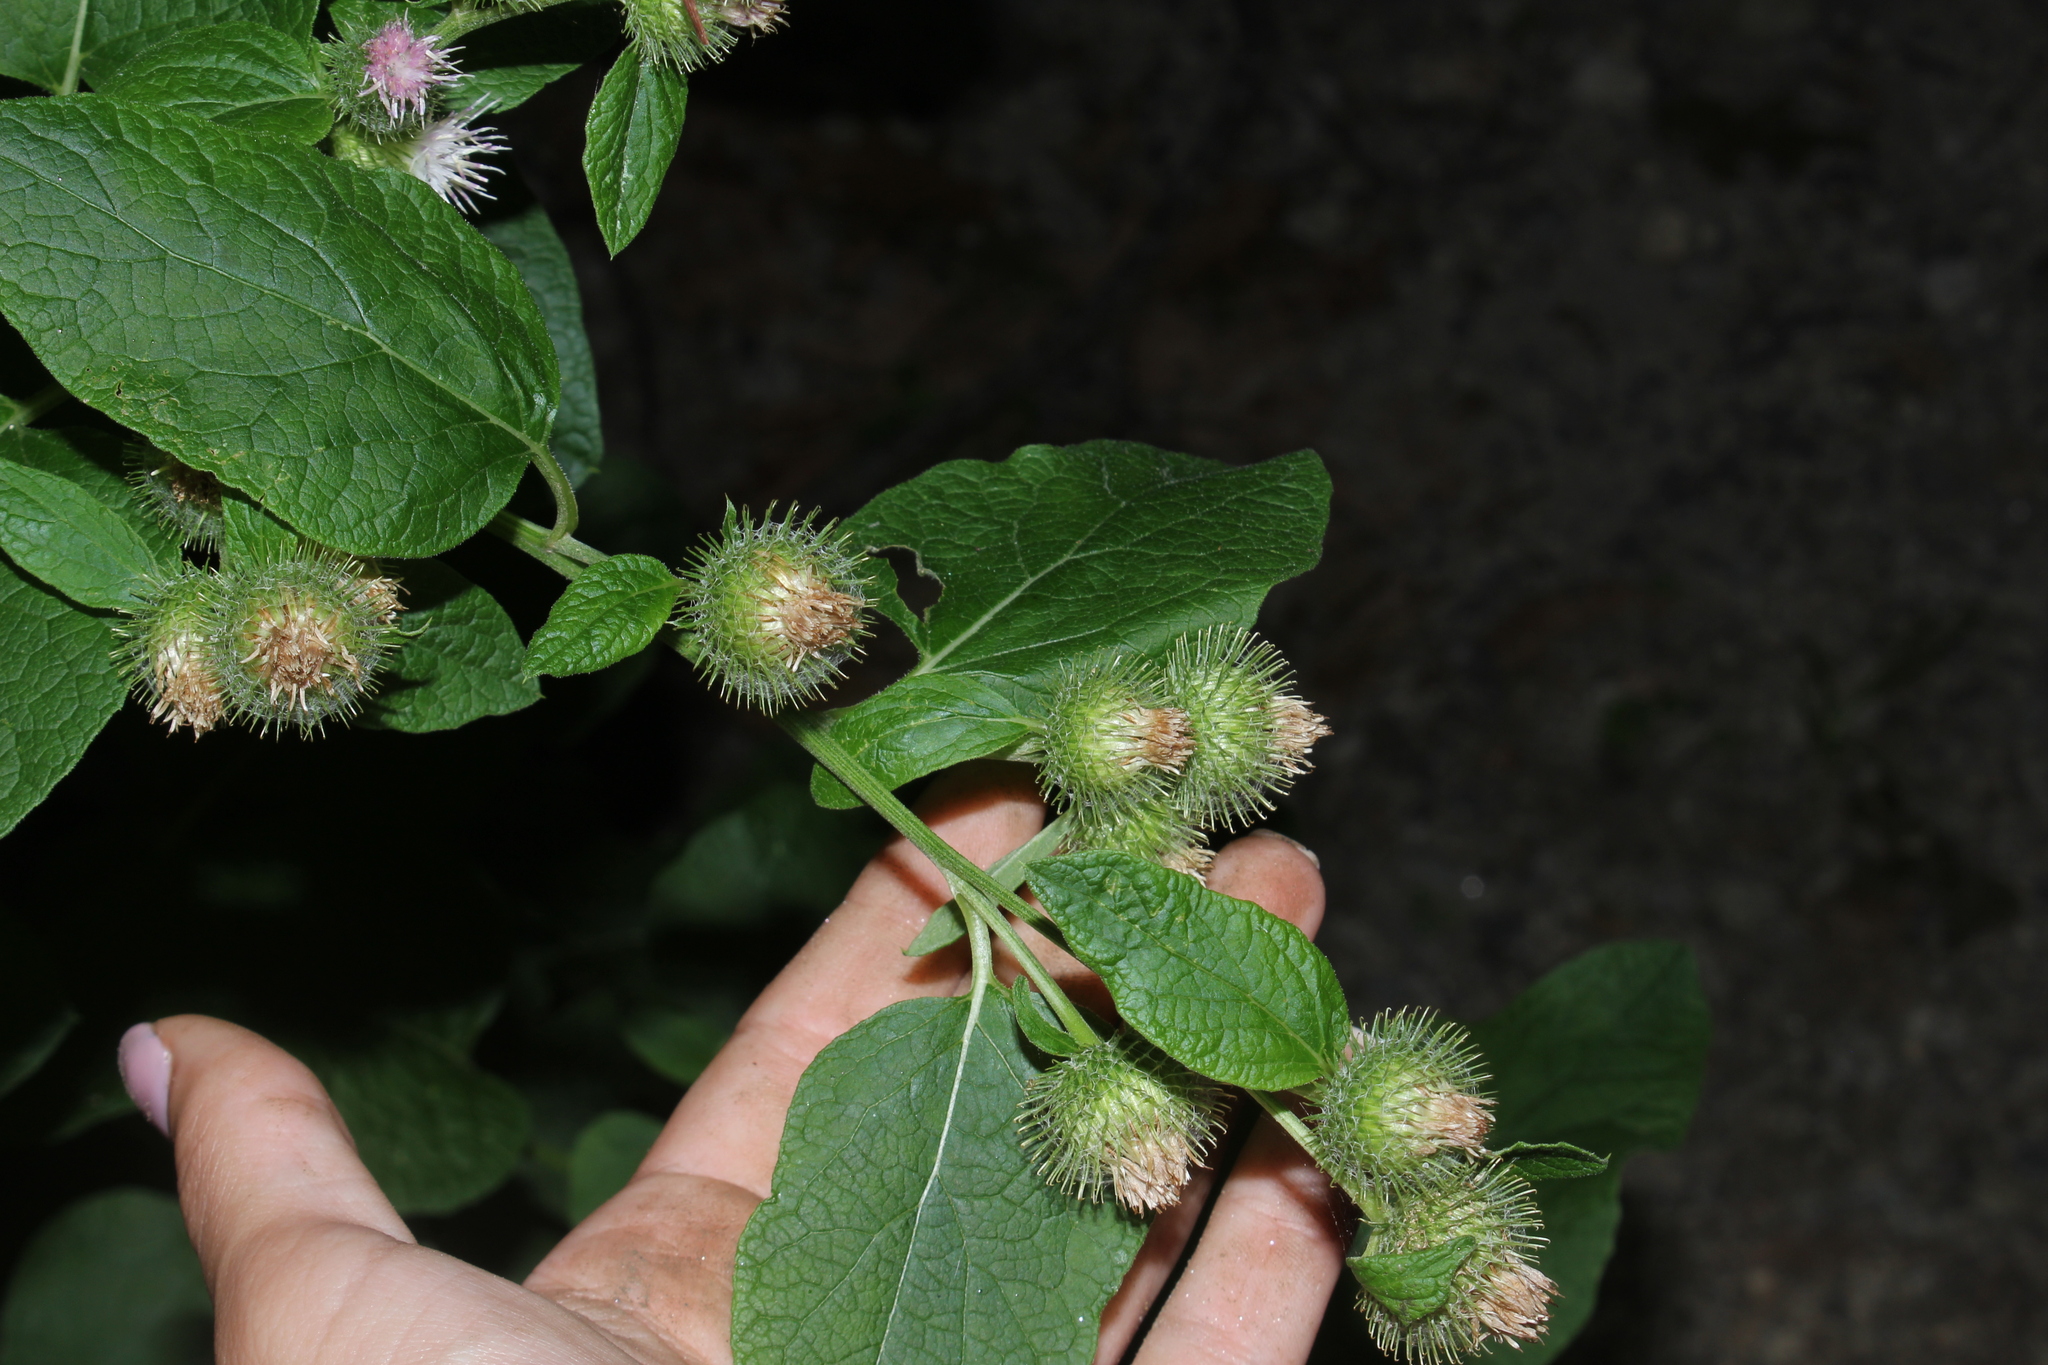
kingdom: Plantae
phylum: Tracheophyta
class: Magnoliopsida
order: Asterales
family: Asteraceae
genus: Arctium
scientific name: Arctium minus
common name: Lesser burdock
